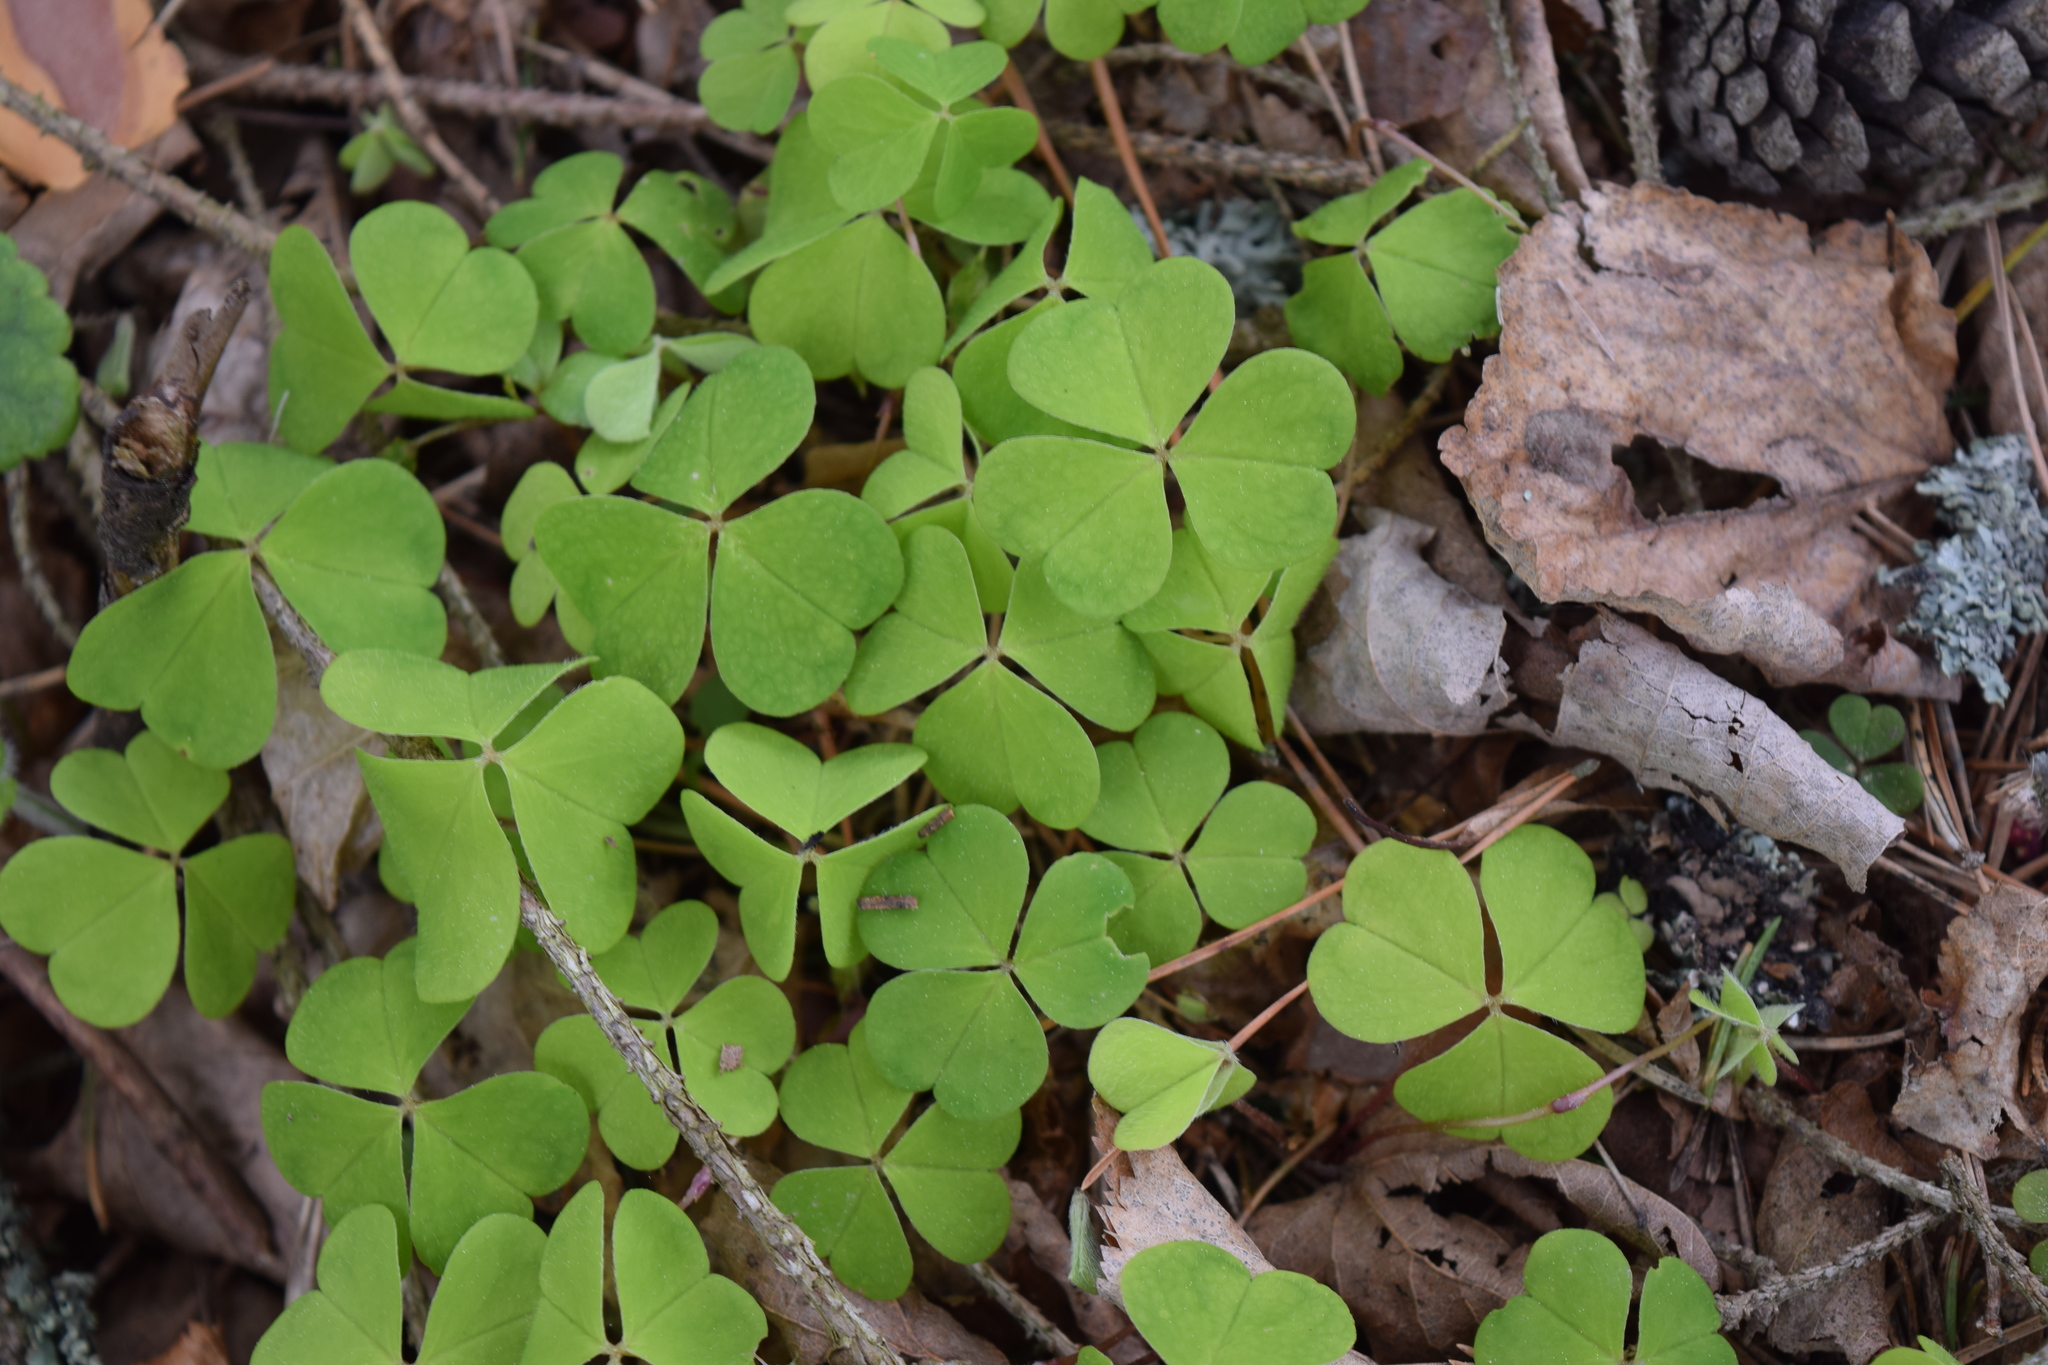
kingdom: Plantae
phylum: Tracheophyta
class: Magnoliopsida
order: Oxalidales
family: Oxalidaceae
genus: Oxalis
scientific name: Oxalis acetosella
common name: Wood-sorrel
